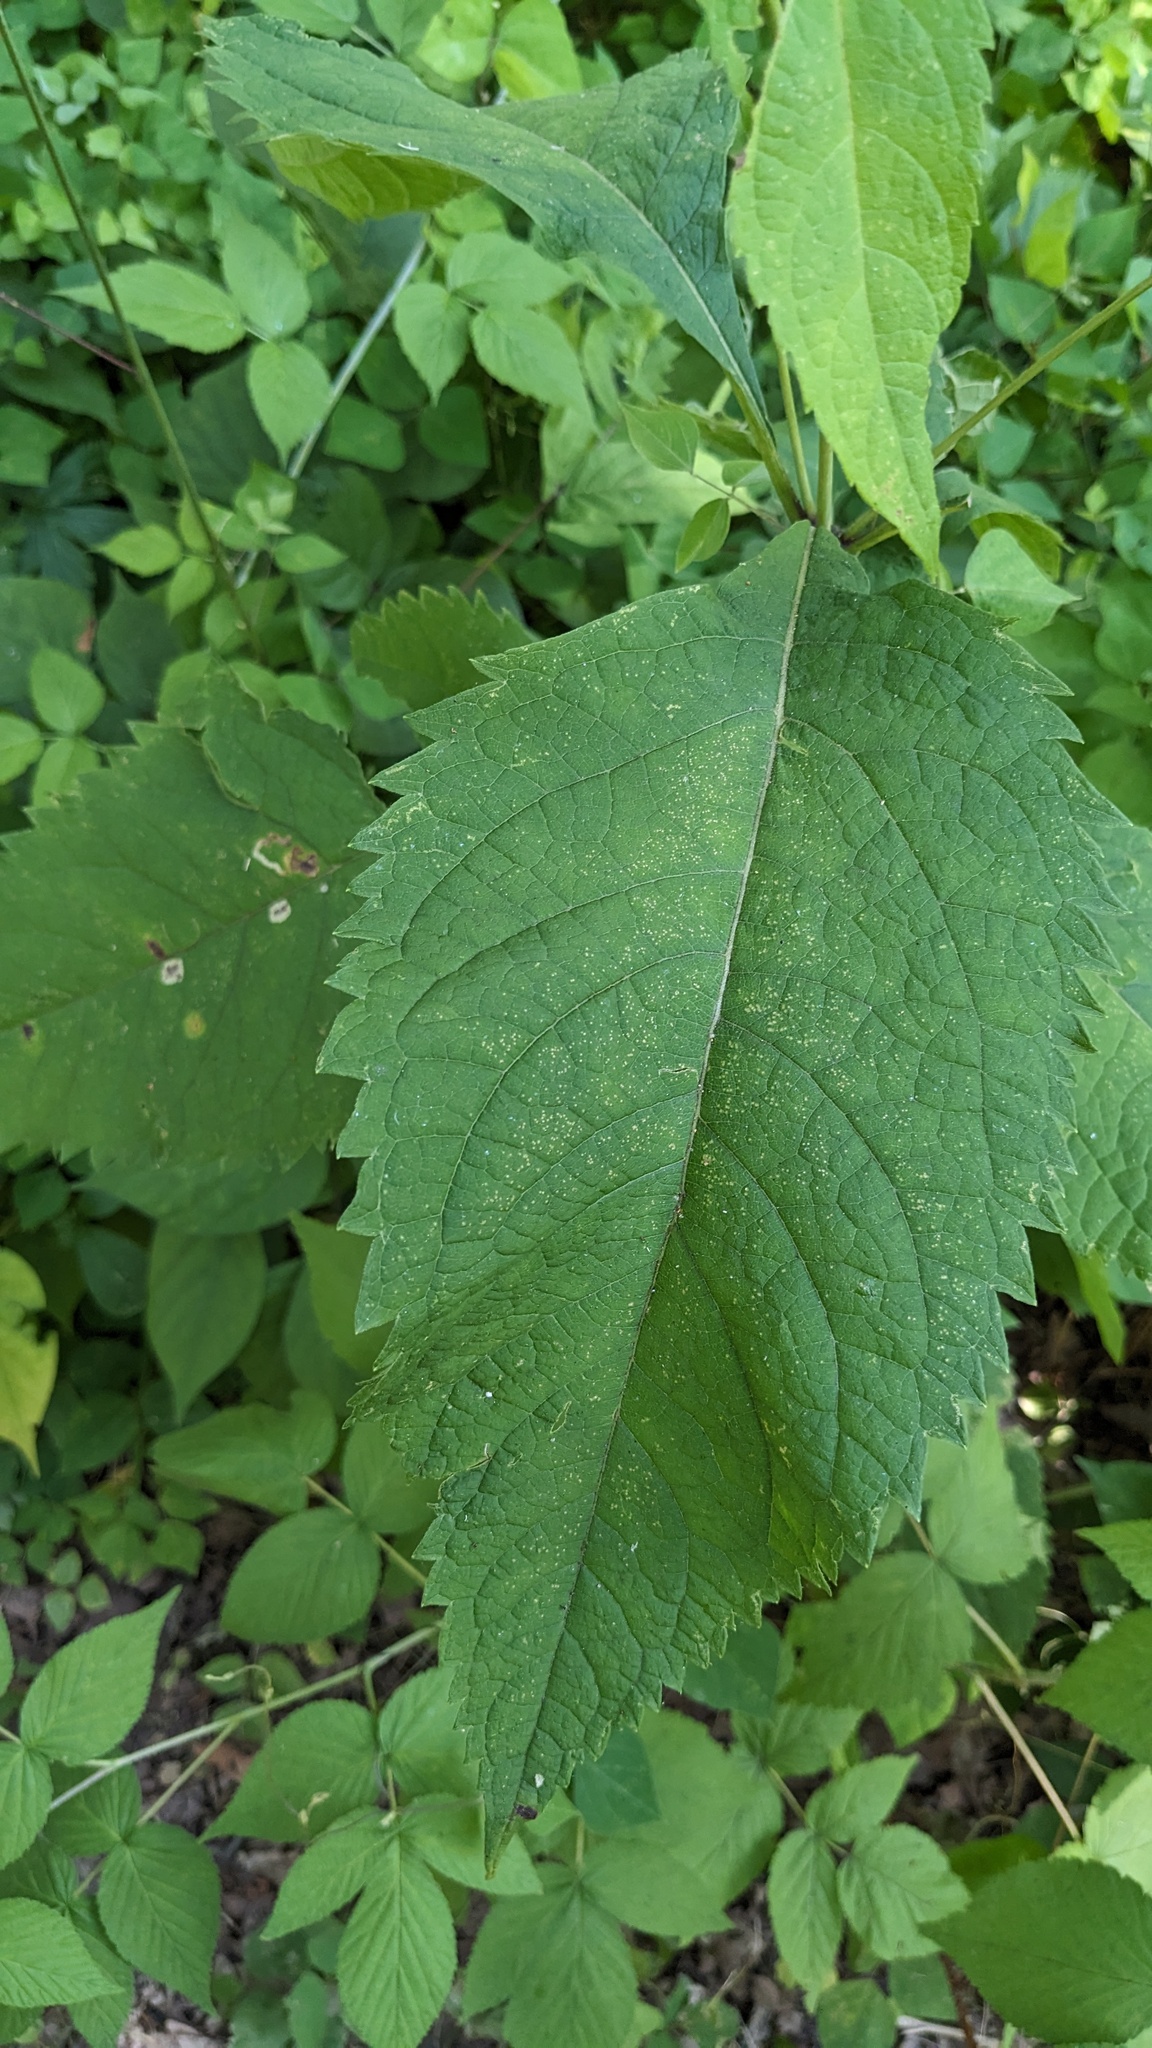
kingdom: Plantae
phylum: Tracheophyta
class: Magnoliopsida
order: Asterales
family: Asteraceae
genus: Eutrochium
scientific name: Eutrochium purpureum
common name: Gravelroot
